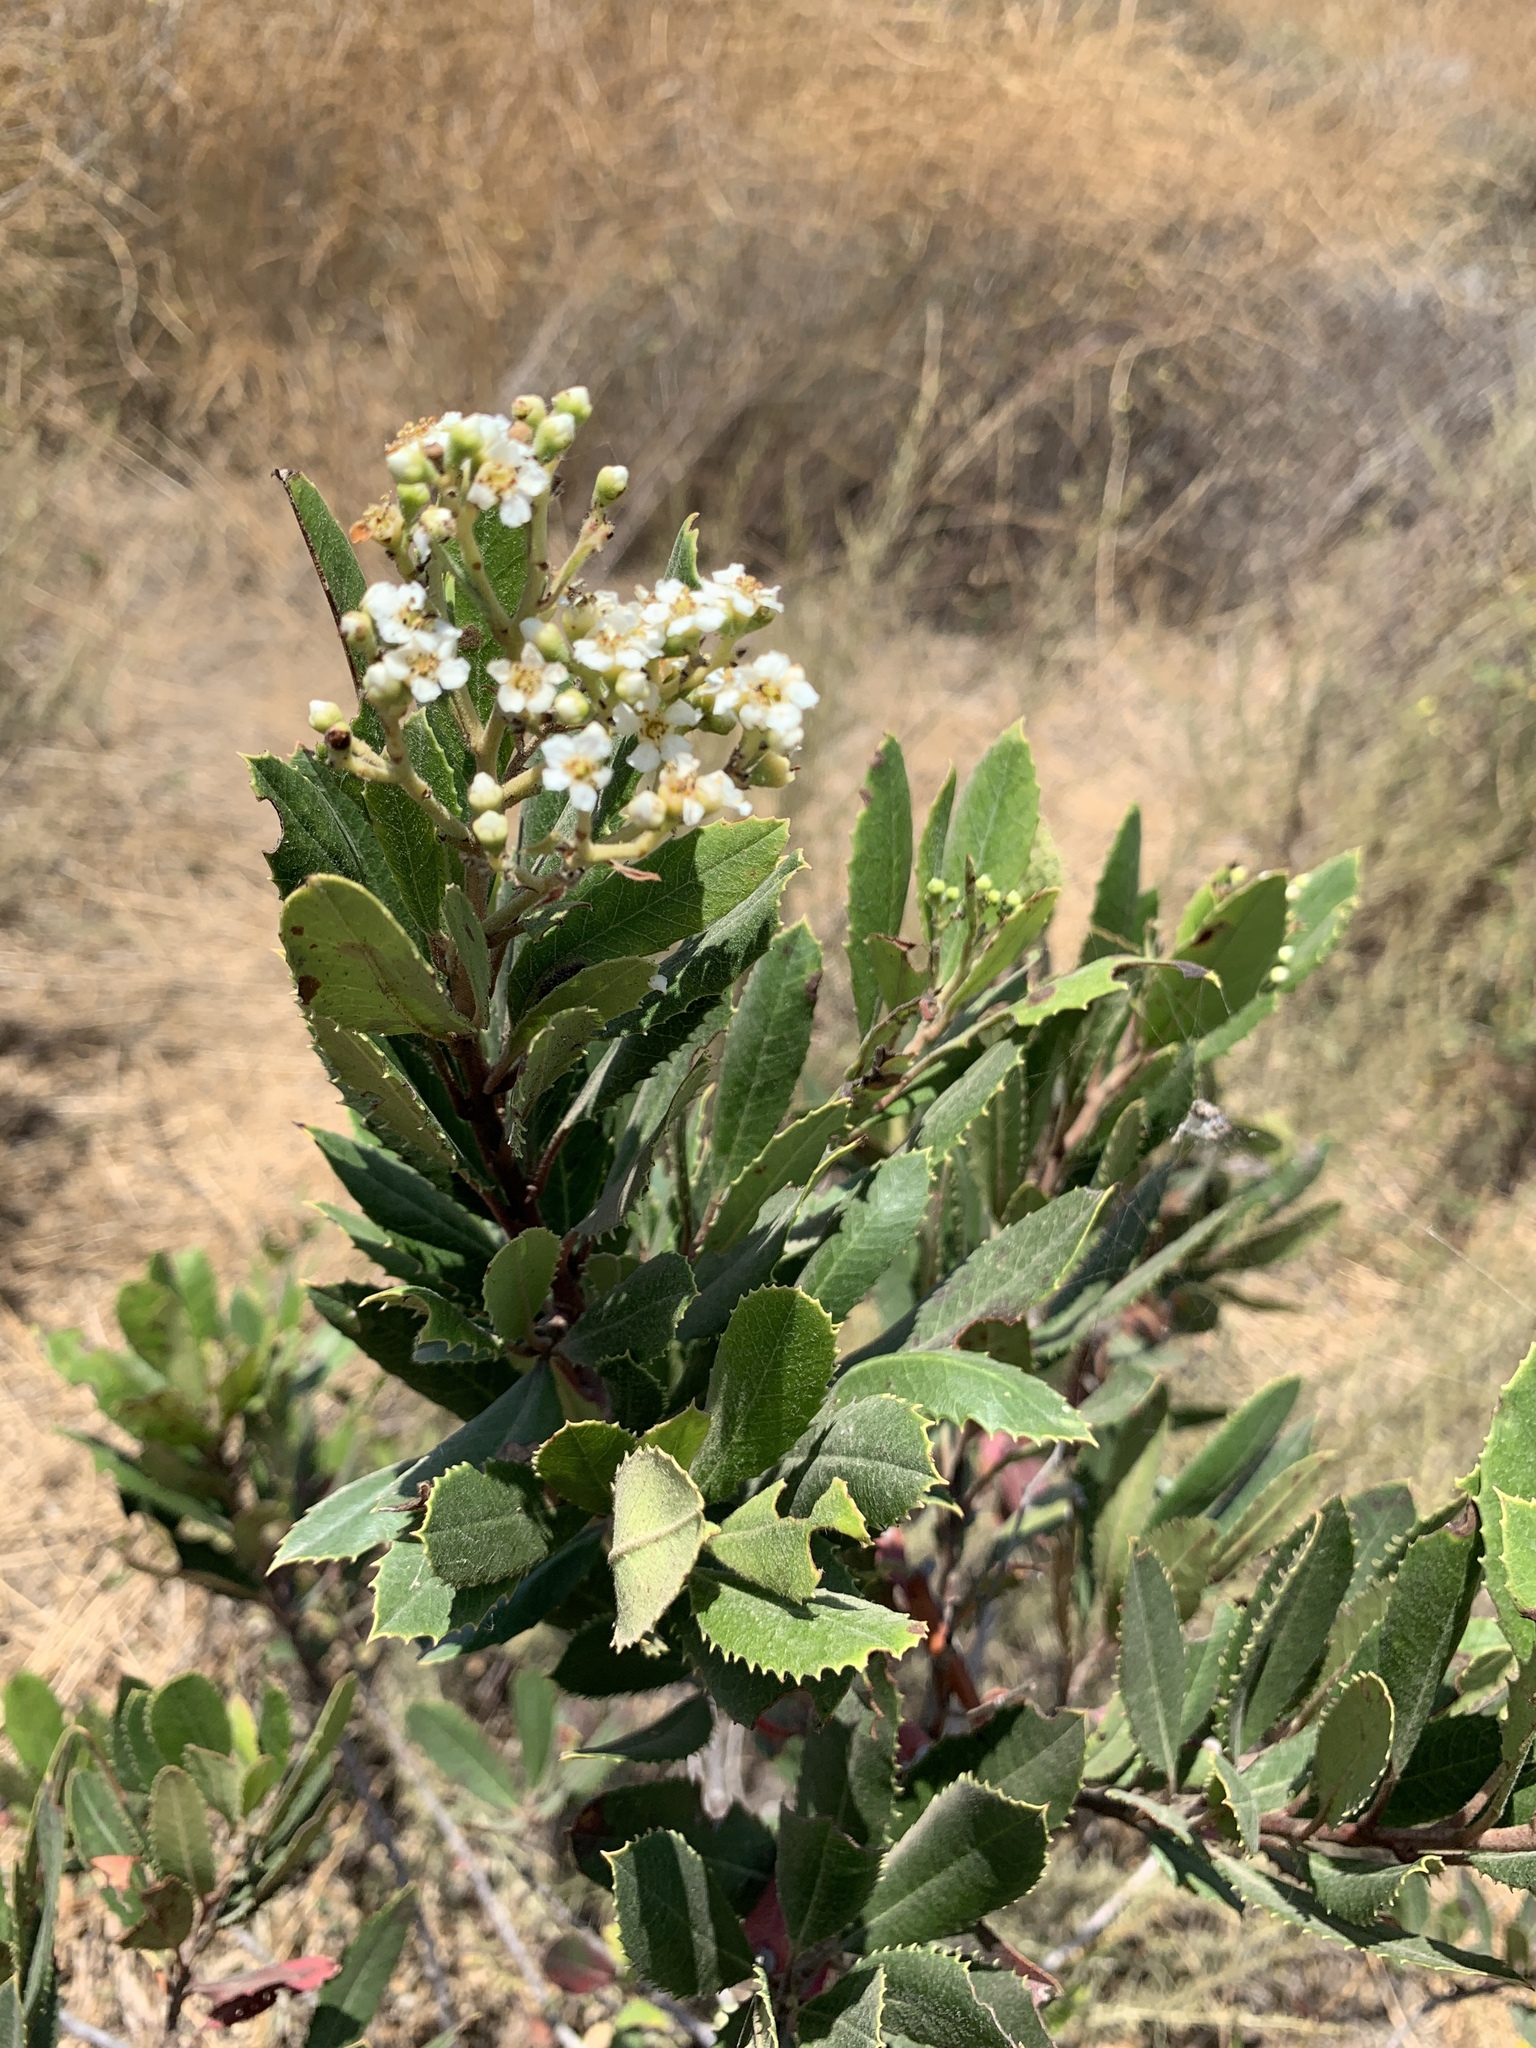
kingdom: Plantae
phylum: Tracheophyta
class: Magnoliopsida
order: Rosales
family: Rosaceae
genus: Heteromeles
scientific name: Heteromeles arbutifolia
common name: California-holly
